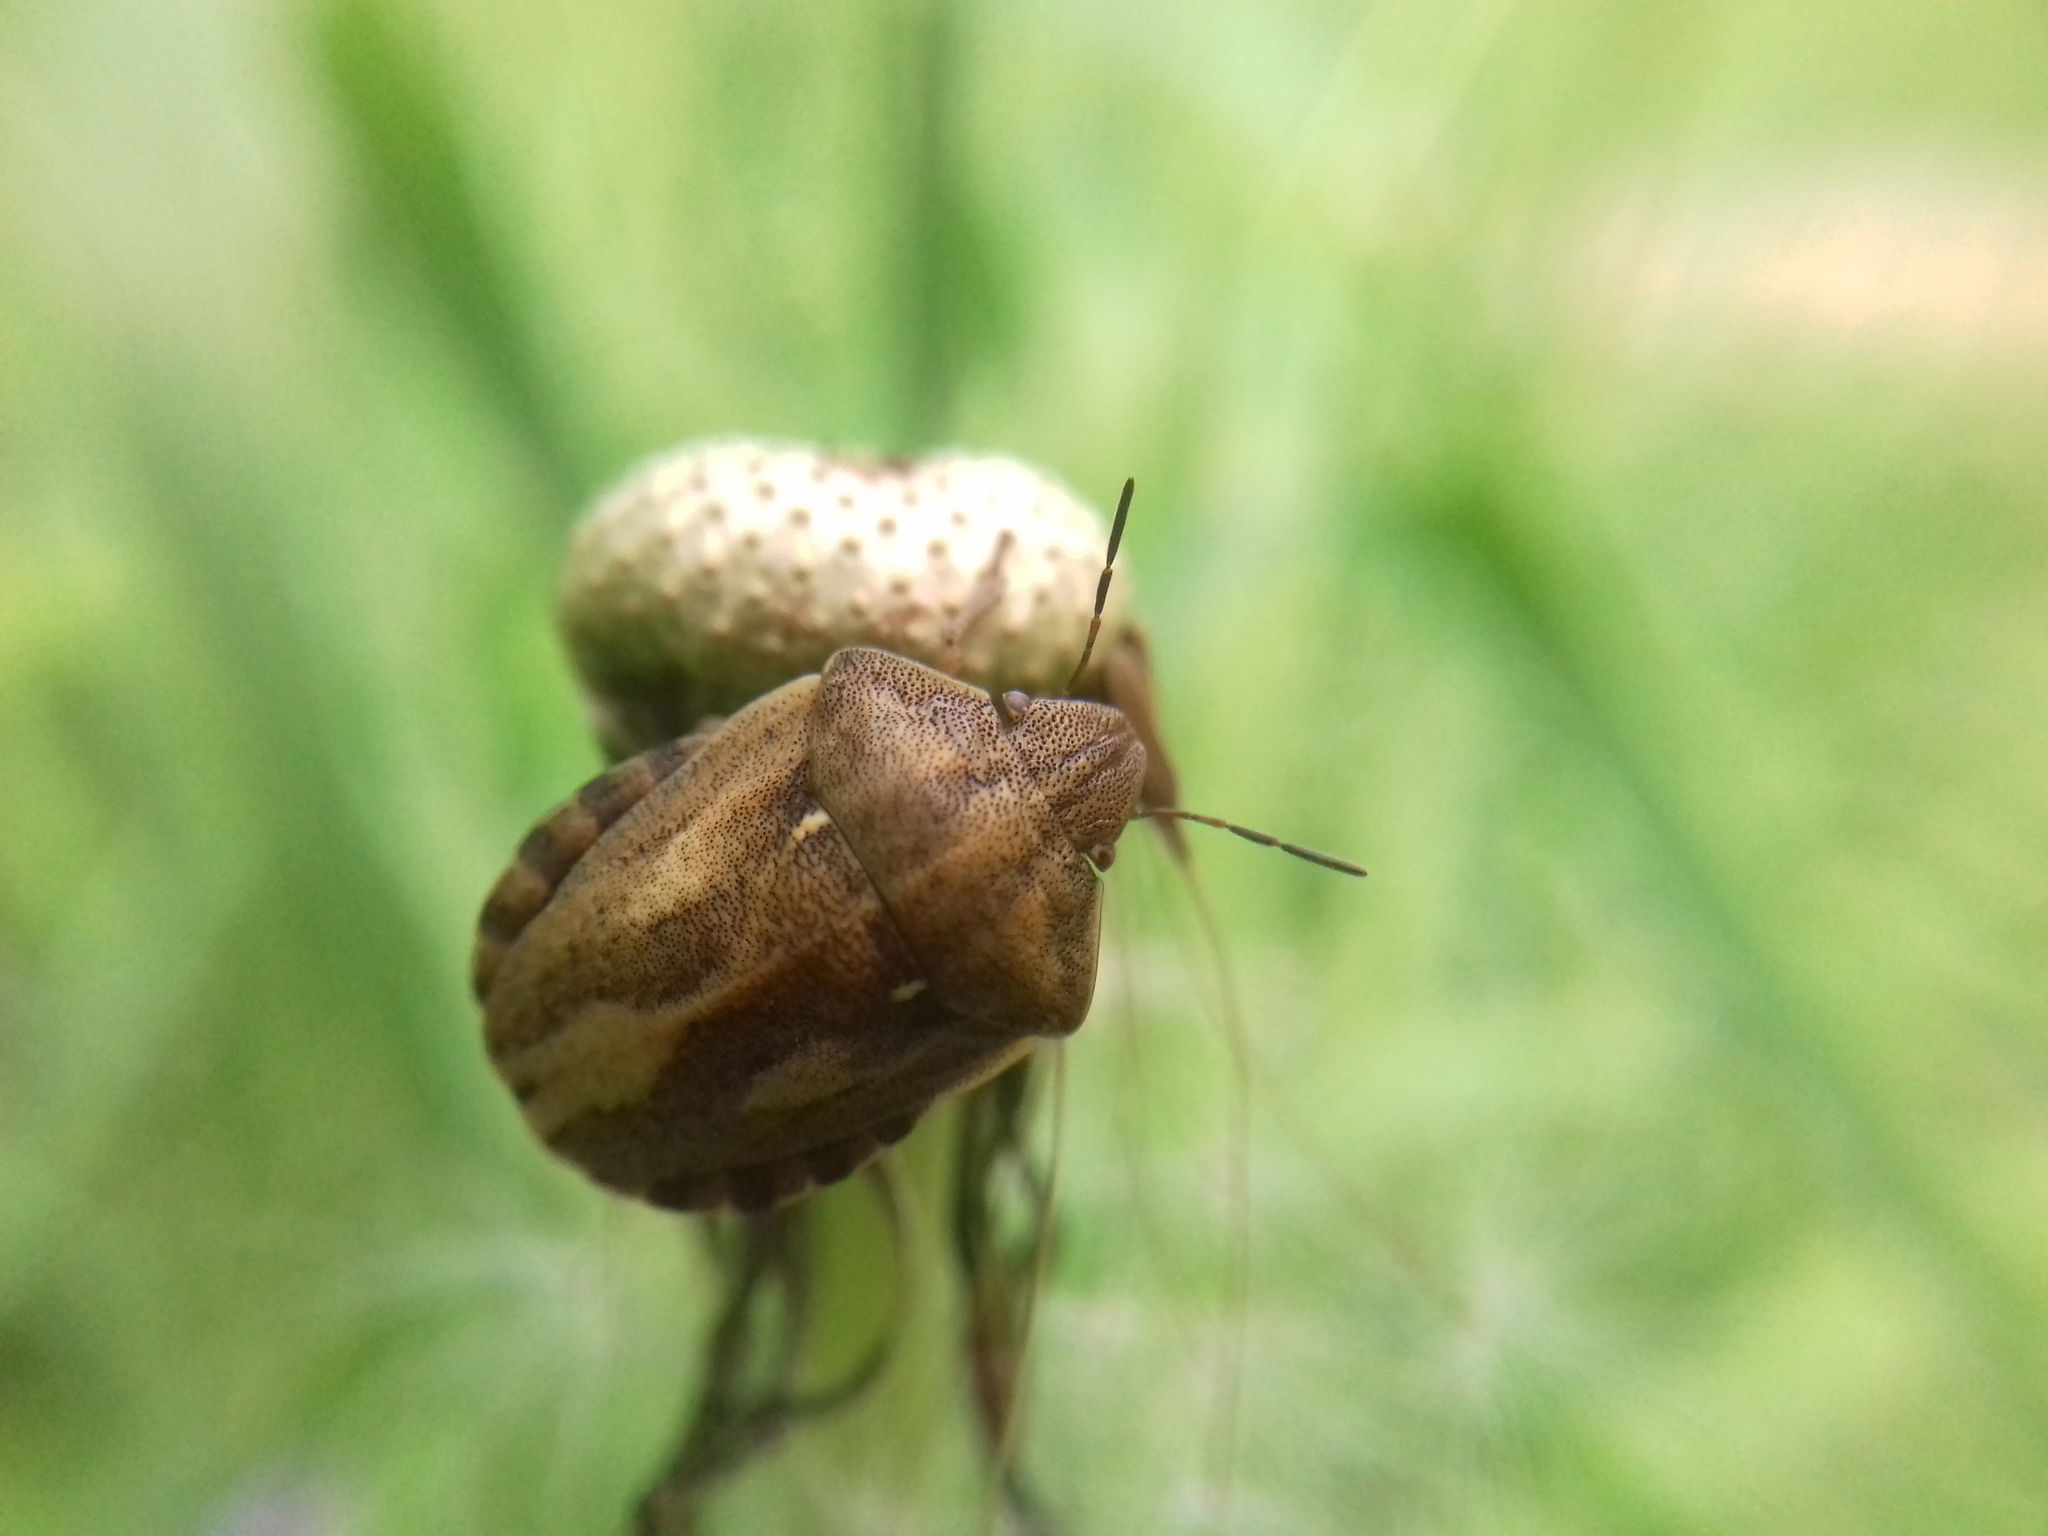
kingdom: Animalia
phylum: Arthropoda
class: Insecta
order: Hemiptera
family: Scutelleridae
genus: Eurygaster
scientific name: Eurygaster testudinaria
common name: Tortoise bug
